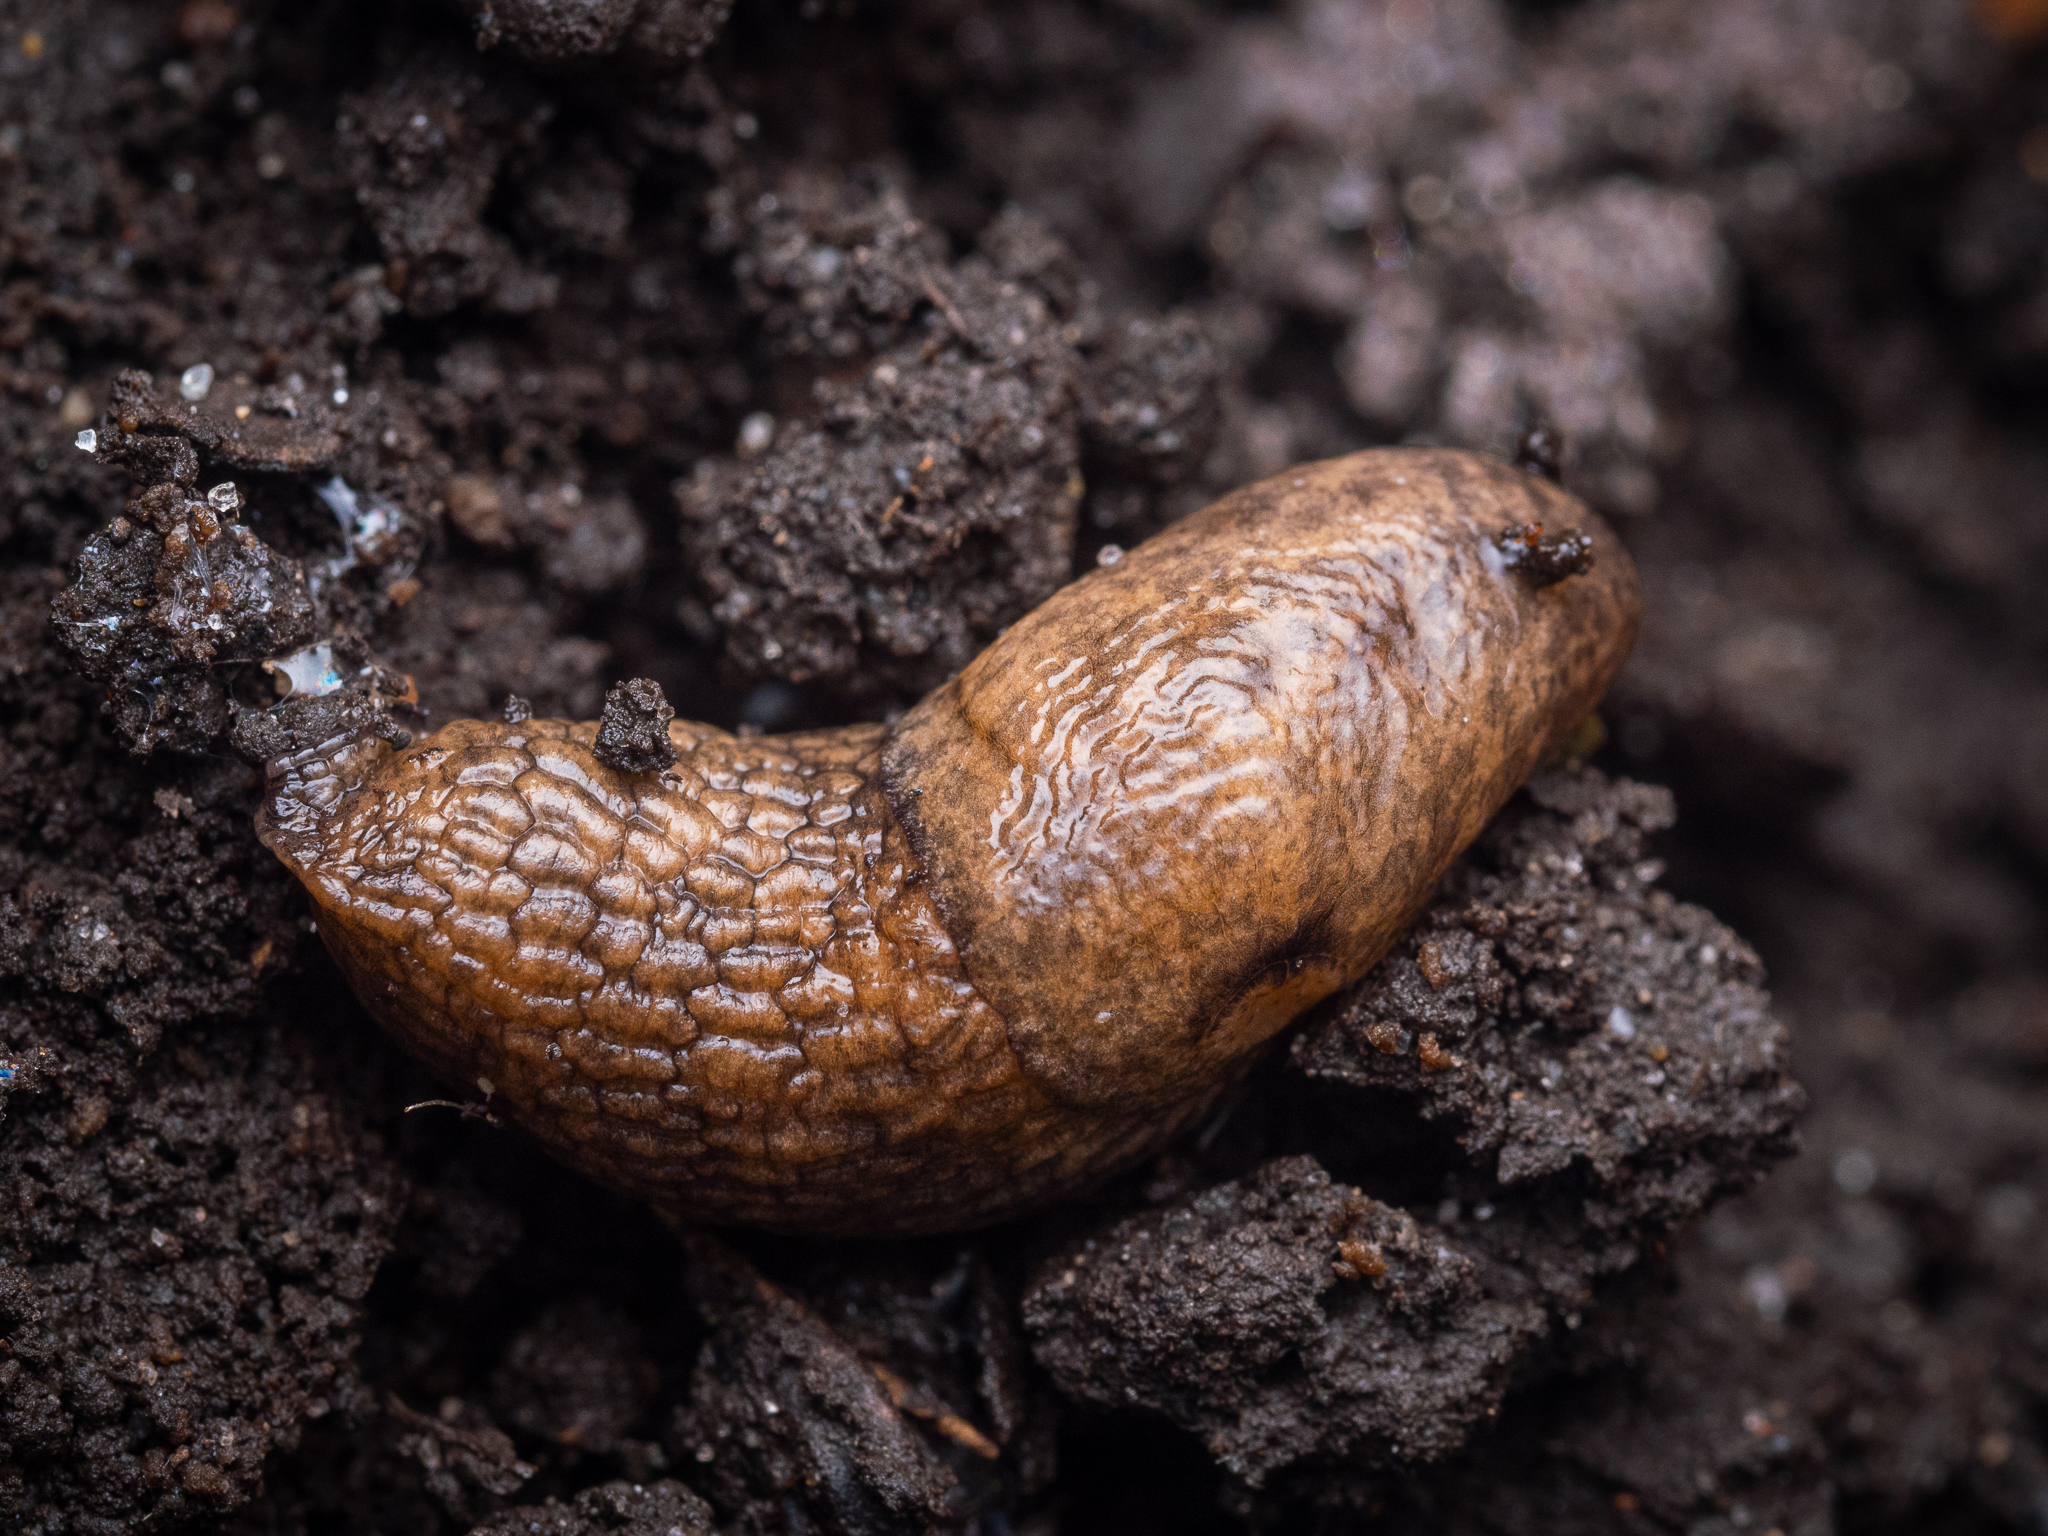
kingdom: Animalia
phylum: Mollusca
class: Gastropoda
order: Stylommatophora
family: Agriolimacidae
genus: Deroceras
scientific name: Deroceras reticulatum
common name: Gray field slug
